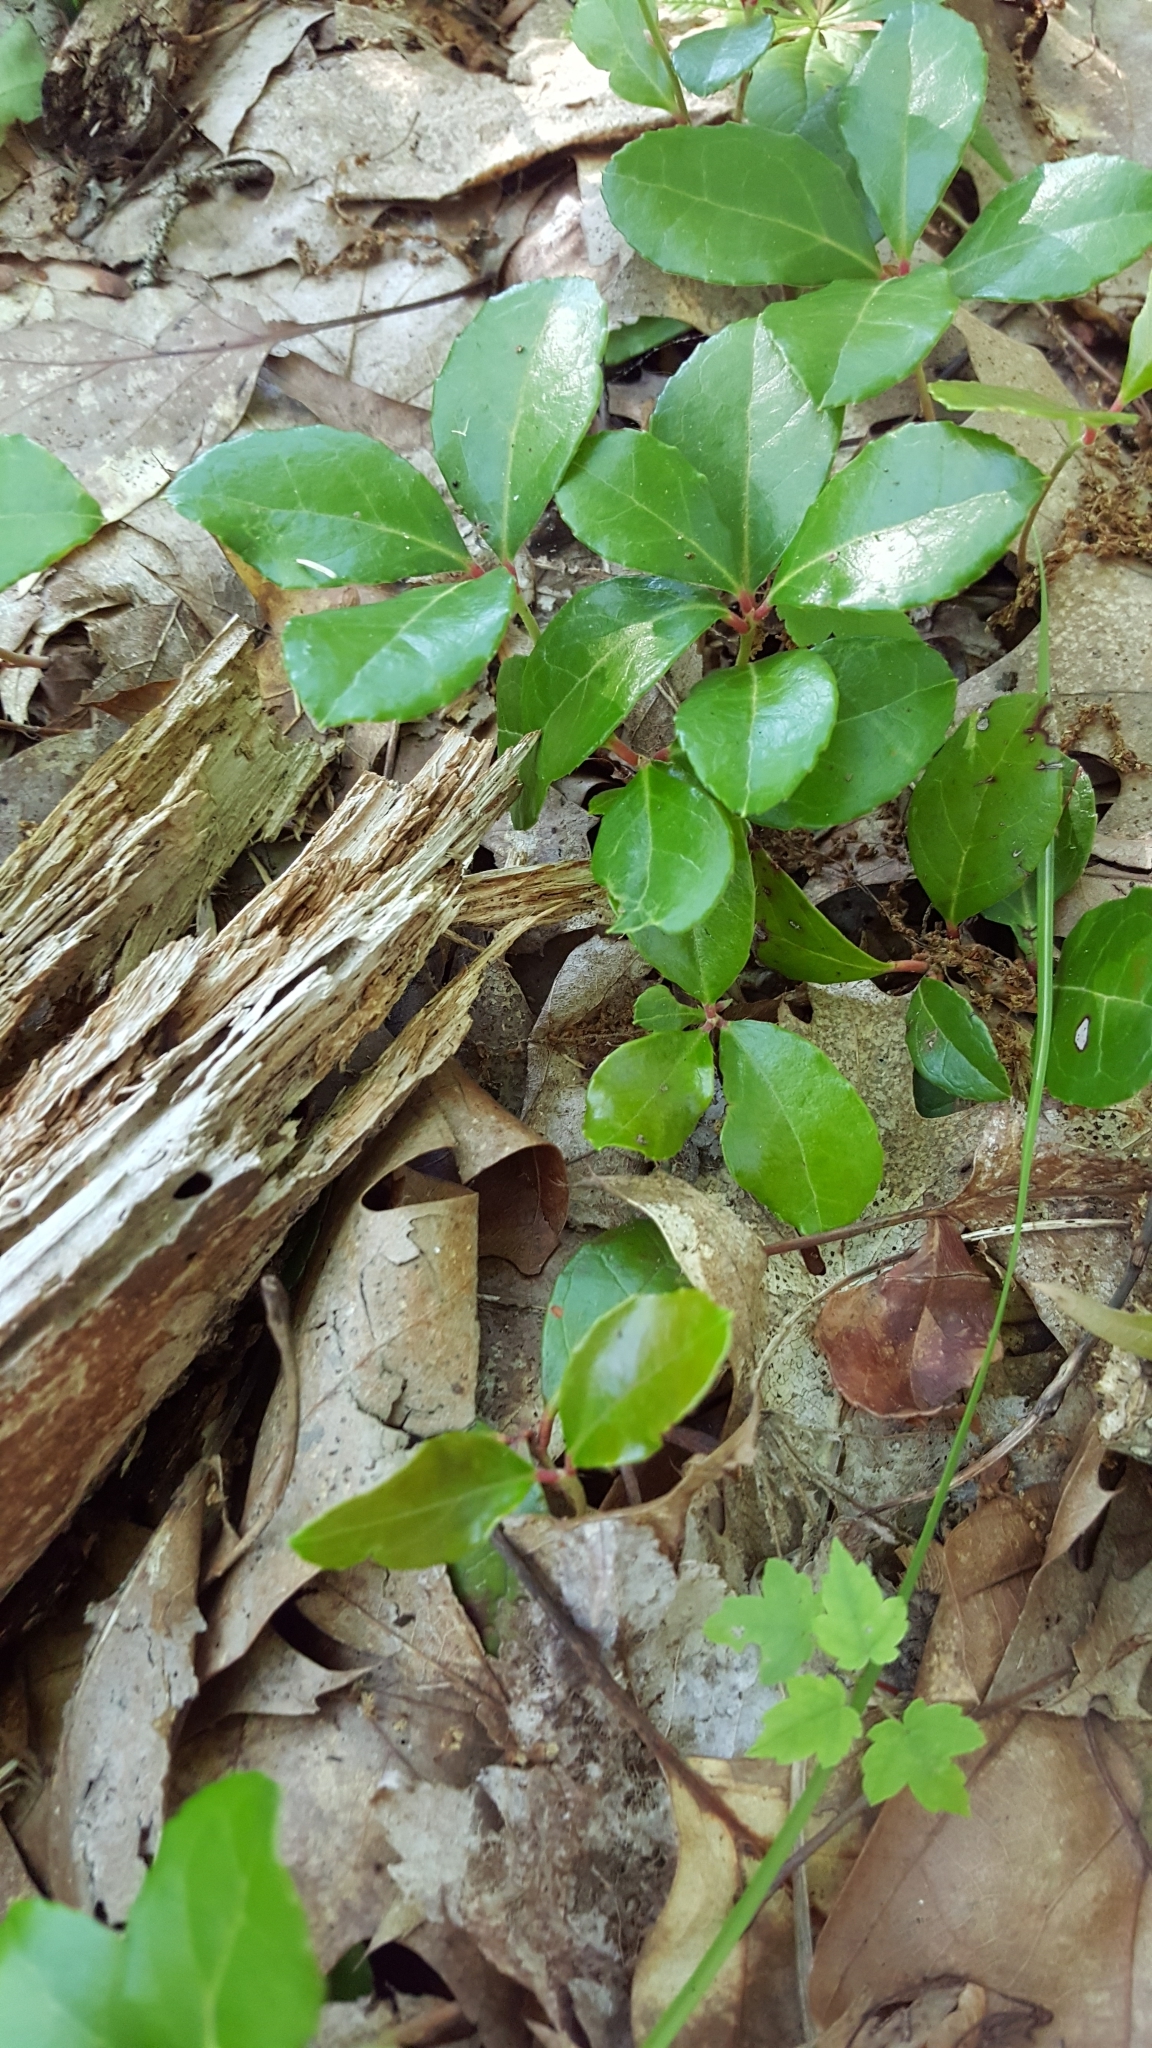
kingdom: Plantae
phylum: Tracheophyta
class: Magnoliopsida
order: Ericales
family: Ericaceae
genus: Gaultheria
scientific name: Gaultheria procumbens
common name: Checkerberry
